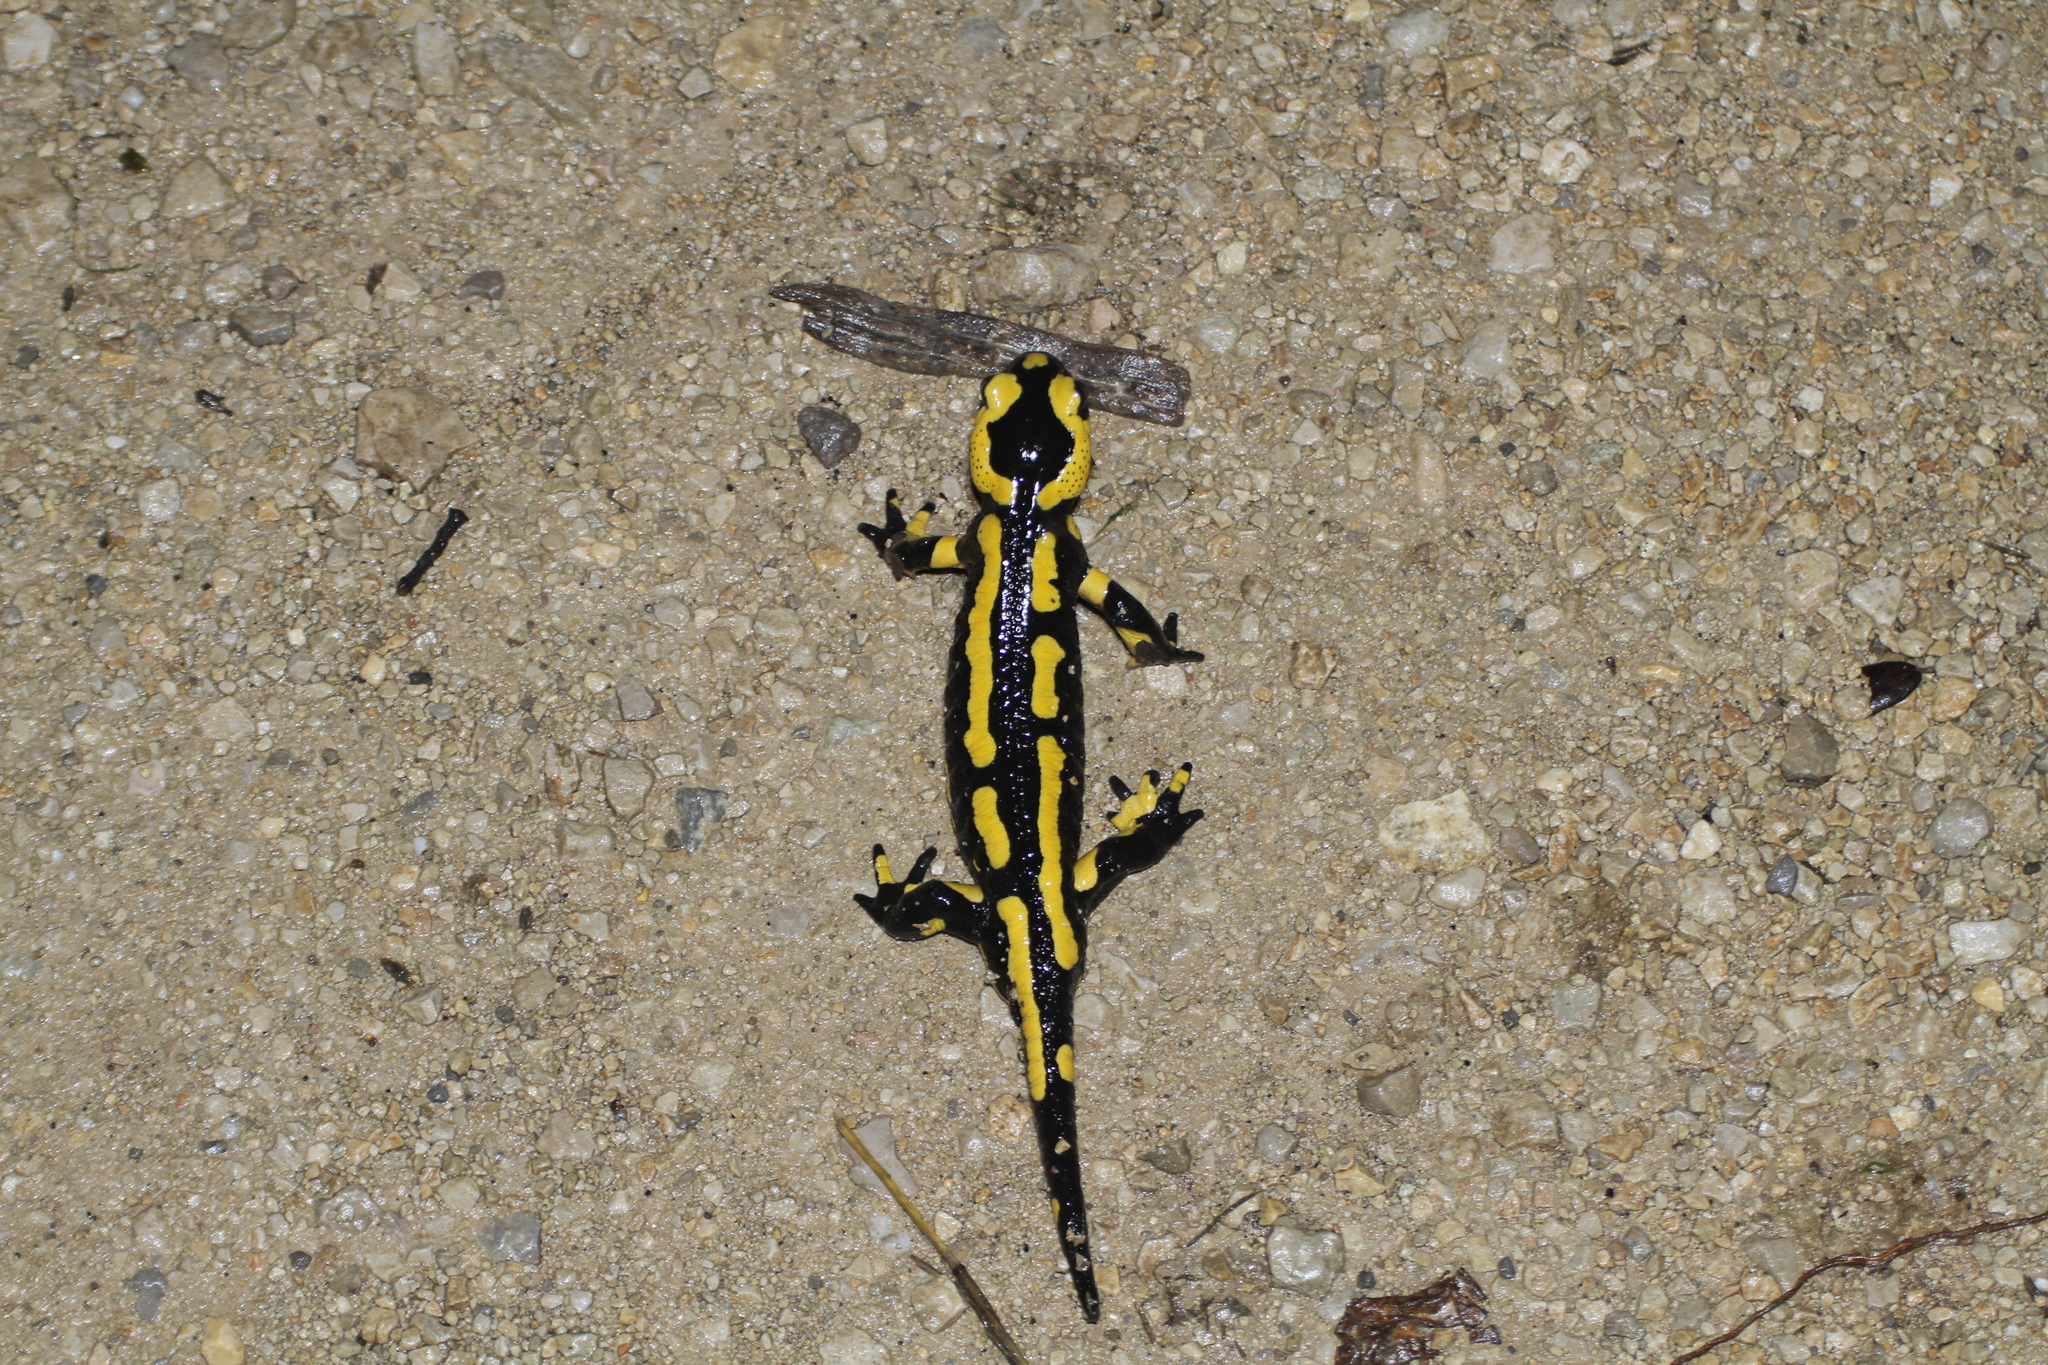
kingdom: Animalia
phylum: Chordata
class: Amphibia
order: Caudata
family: Salamandridae
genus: Salamandra
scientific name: Salamandra salamandra
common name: Fire salamander
